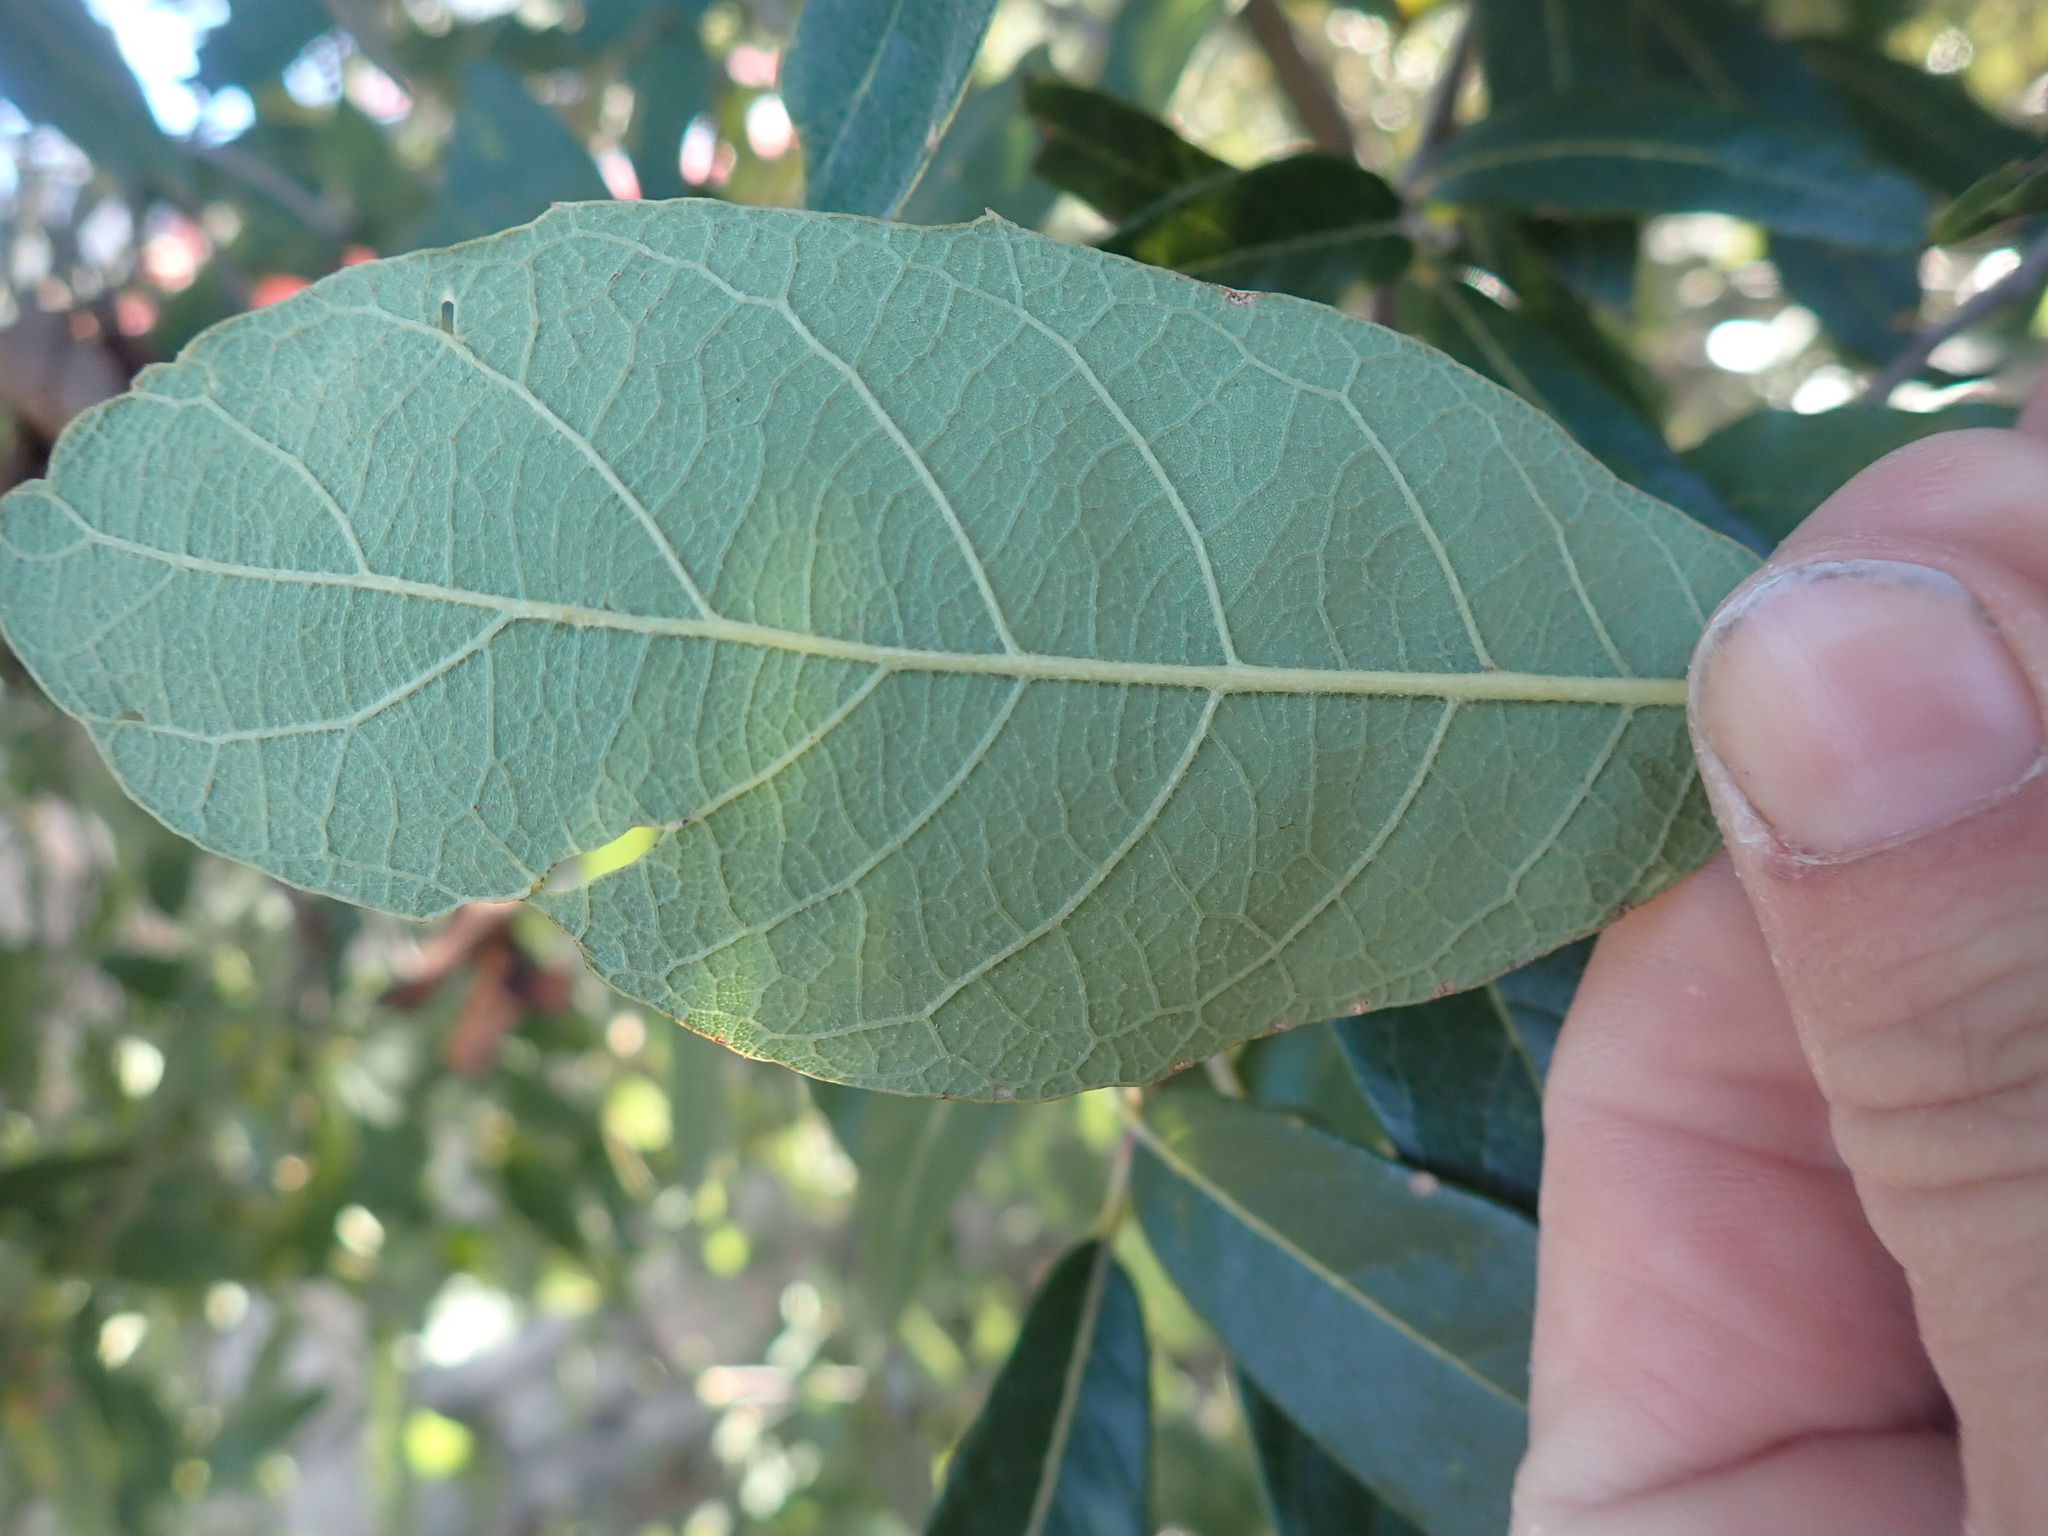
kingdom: Plantae
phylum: Tracheophyta
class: Magnoliopsida
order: Fagales
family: Fagaceae
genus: Quercus
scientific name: Quercus arizonica
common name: Arizona white oak
